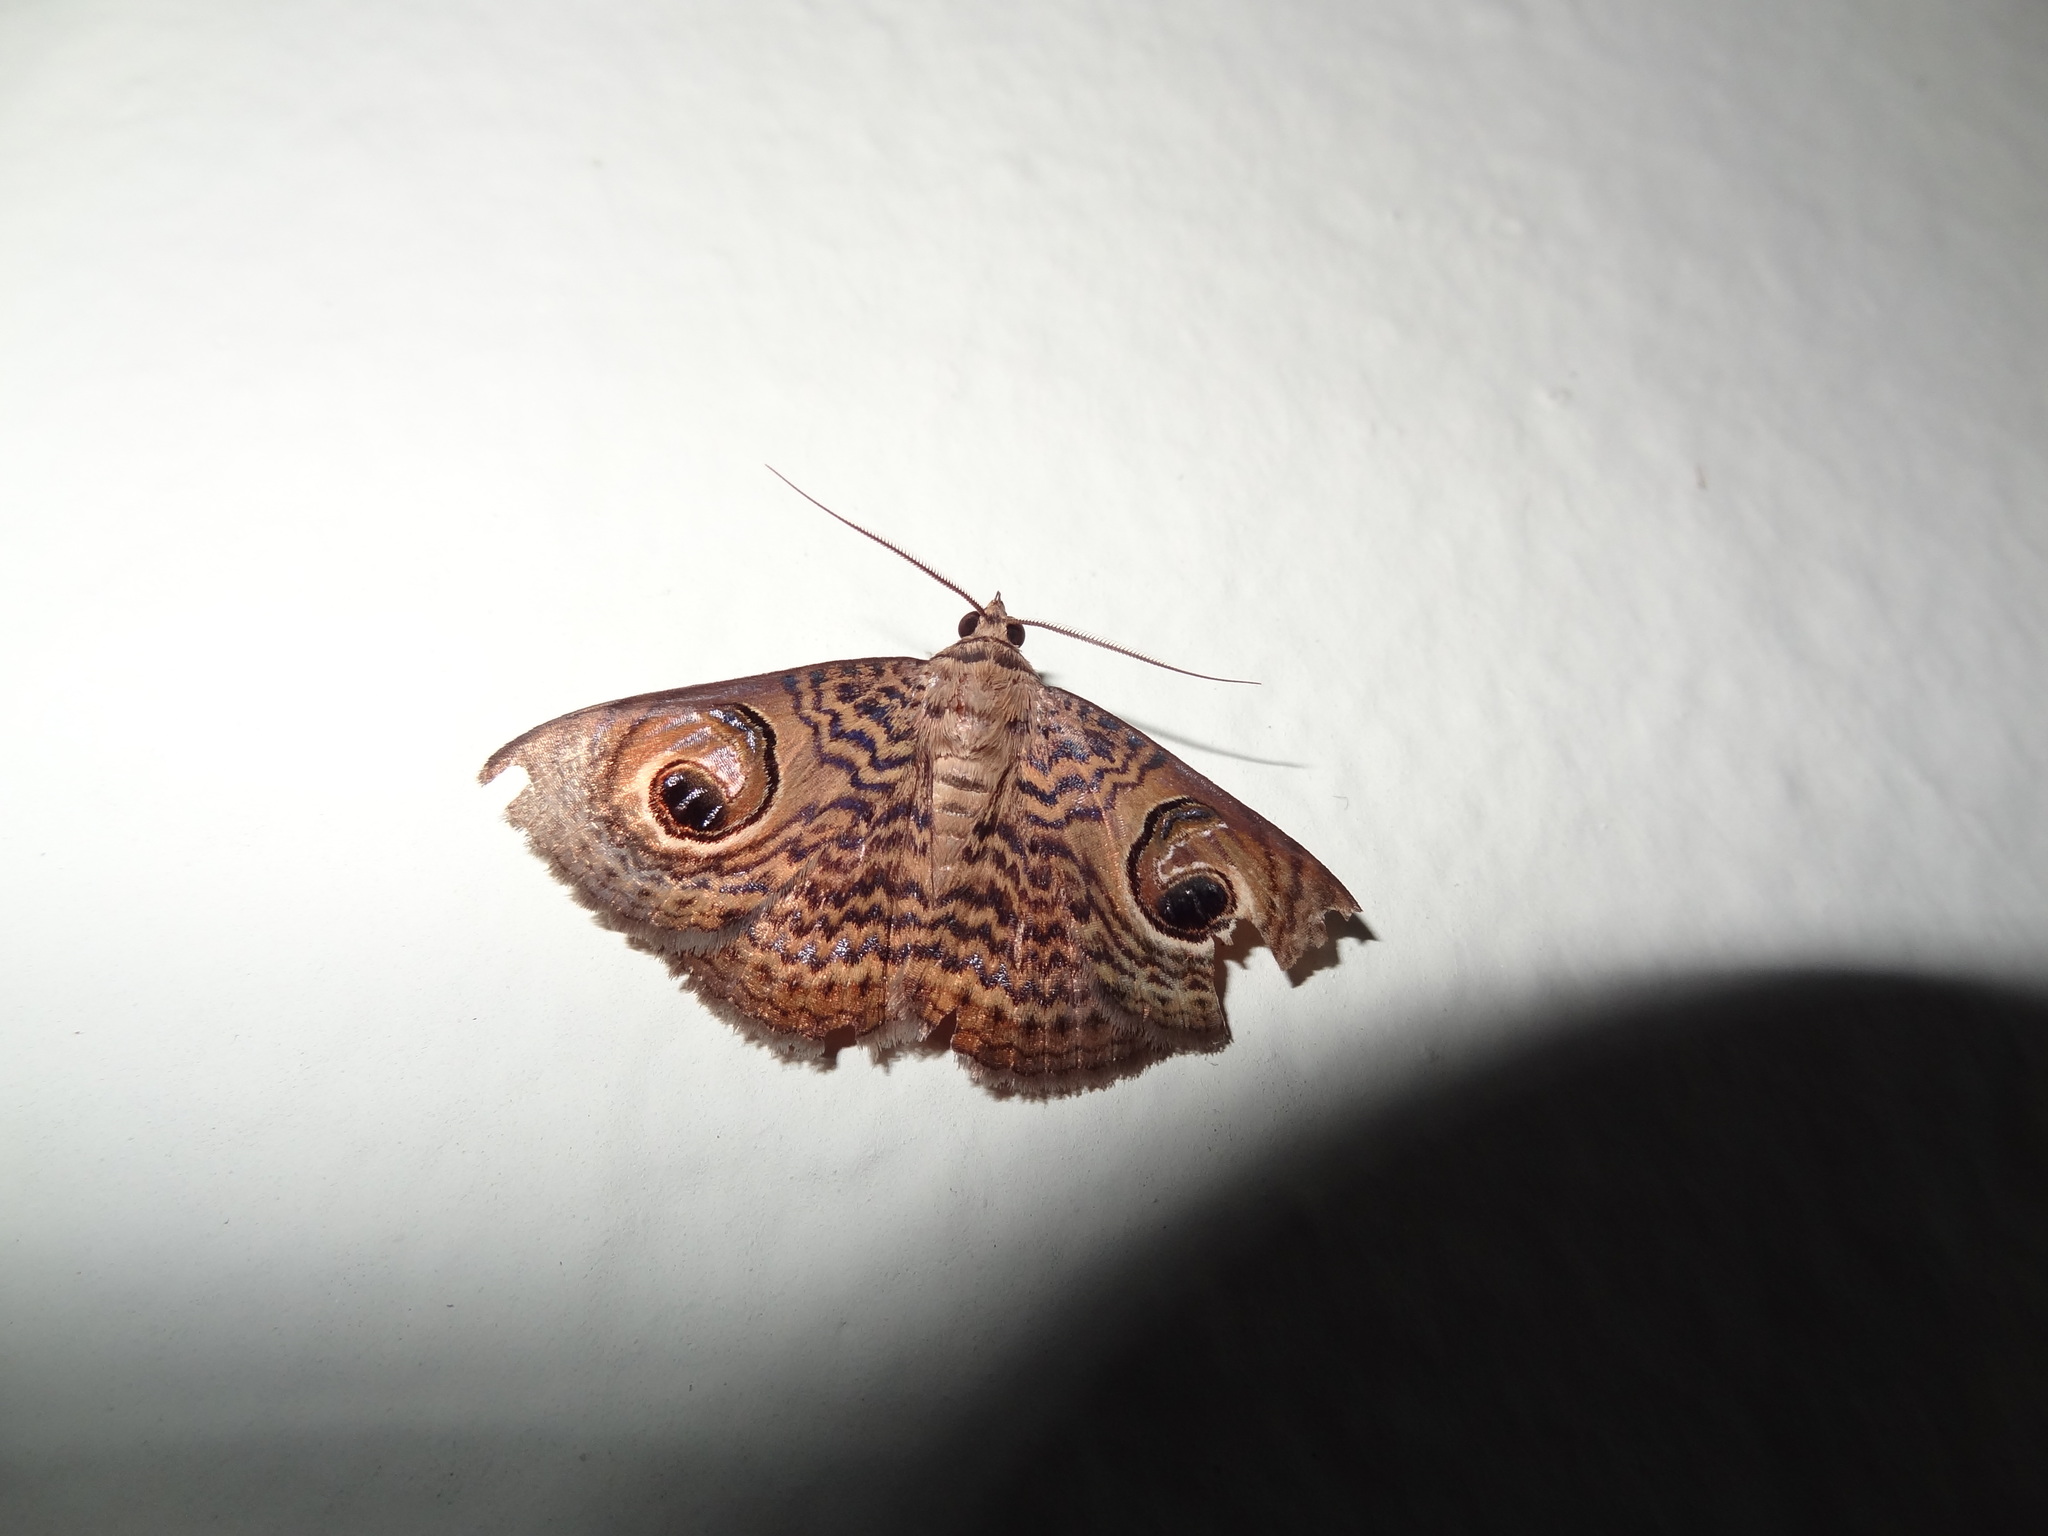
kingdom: Animalia
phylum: Arthropoda
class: Insecta
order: Lepidoptera
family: Erebidae
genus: Calliodes
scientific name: Calliodes pretiosissima
